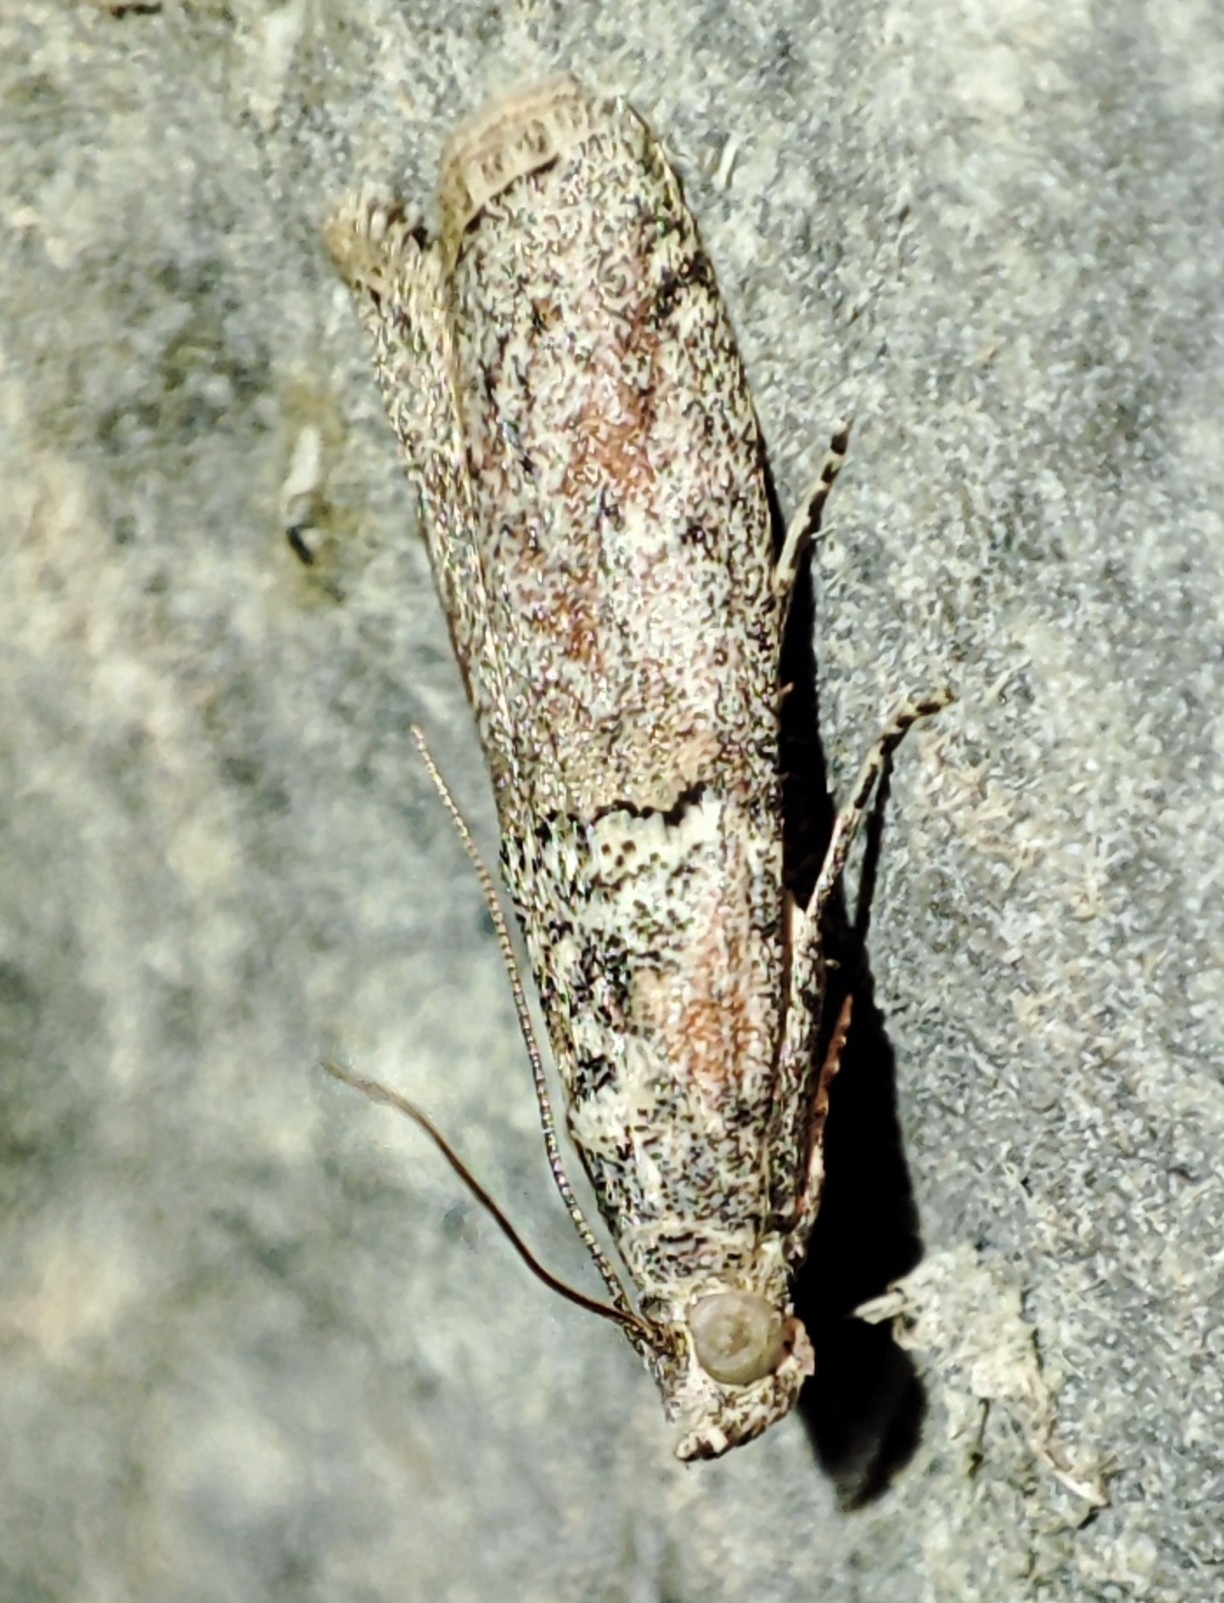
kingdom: Animalia
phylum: Arthropoda
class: Insecta
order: Lepidoptera
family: Pyralidae
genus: Merulempista
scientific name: Merulempista cingillella
